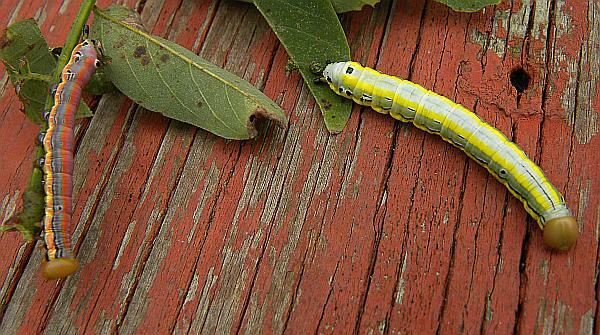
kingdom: Animalia
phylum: Arthropoda
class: Insecta
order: Lepidoptera
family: Notodontidae
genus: Dasylophia
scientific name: Dasylophia anguina
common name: Black-spotted prominent
